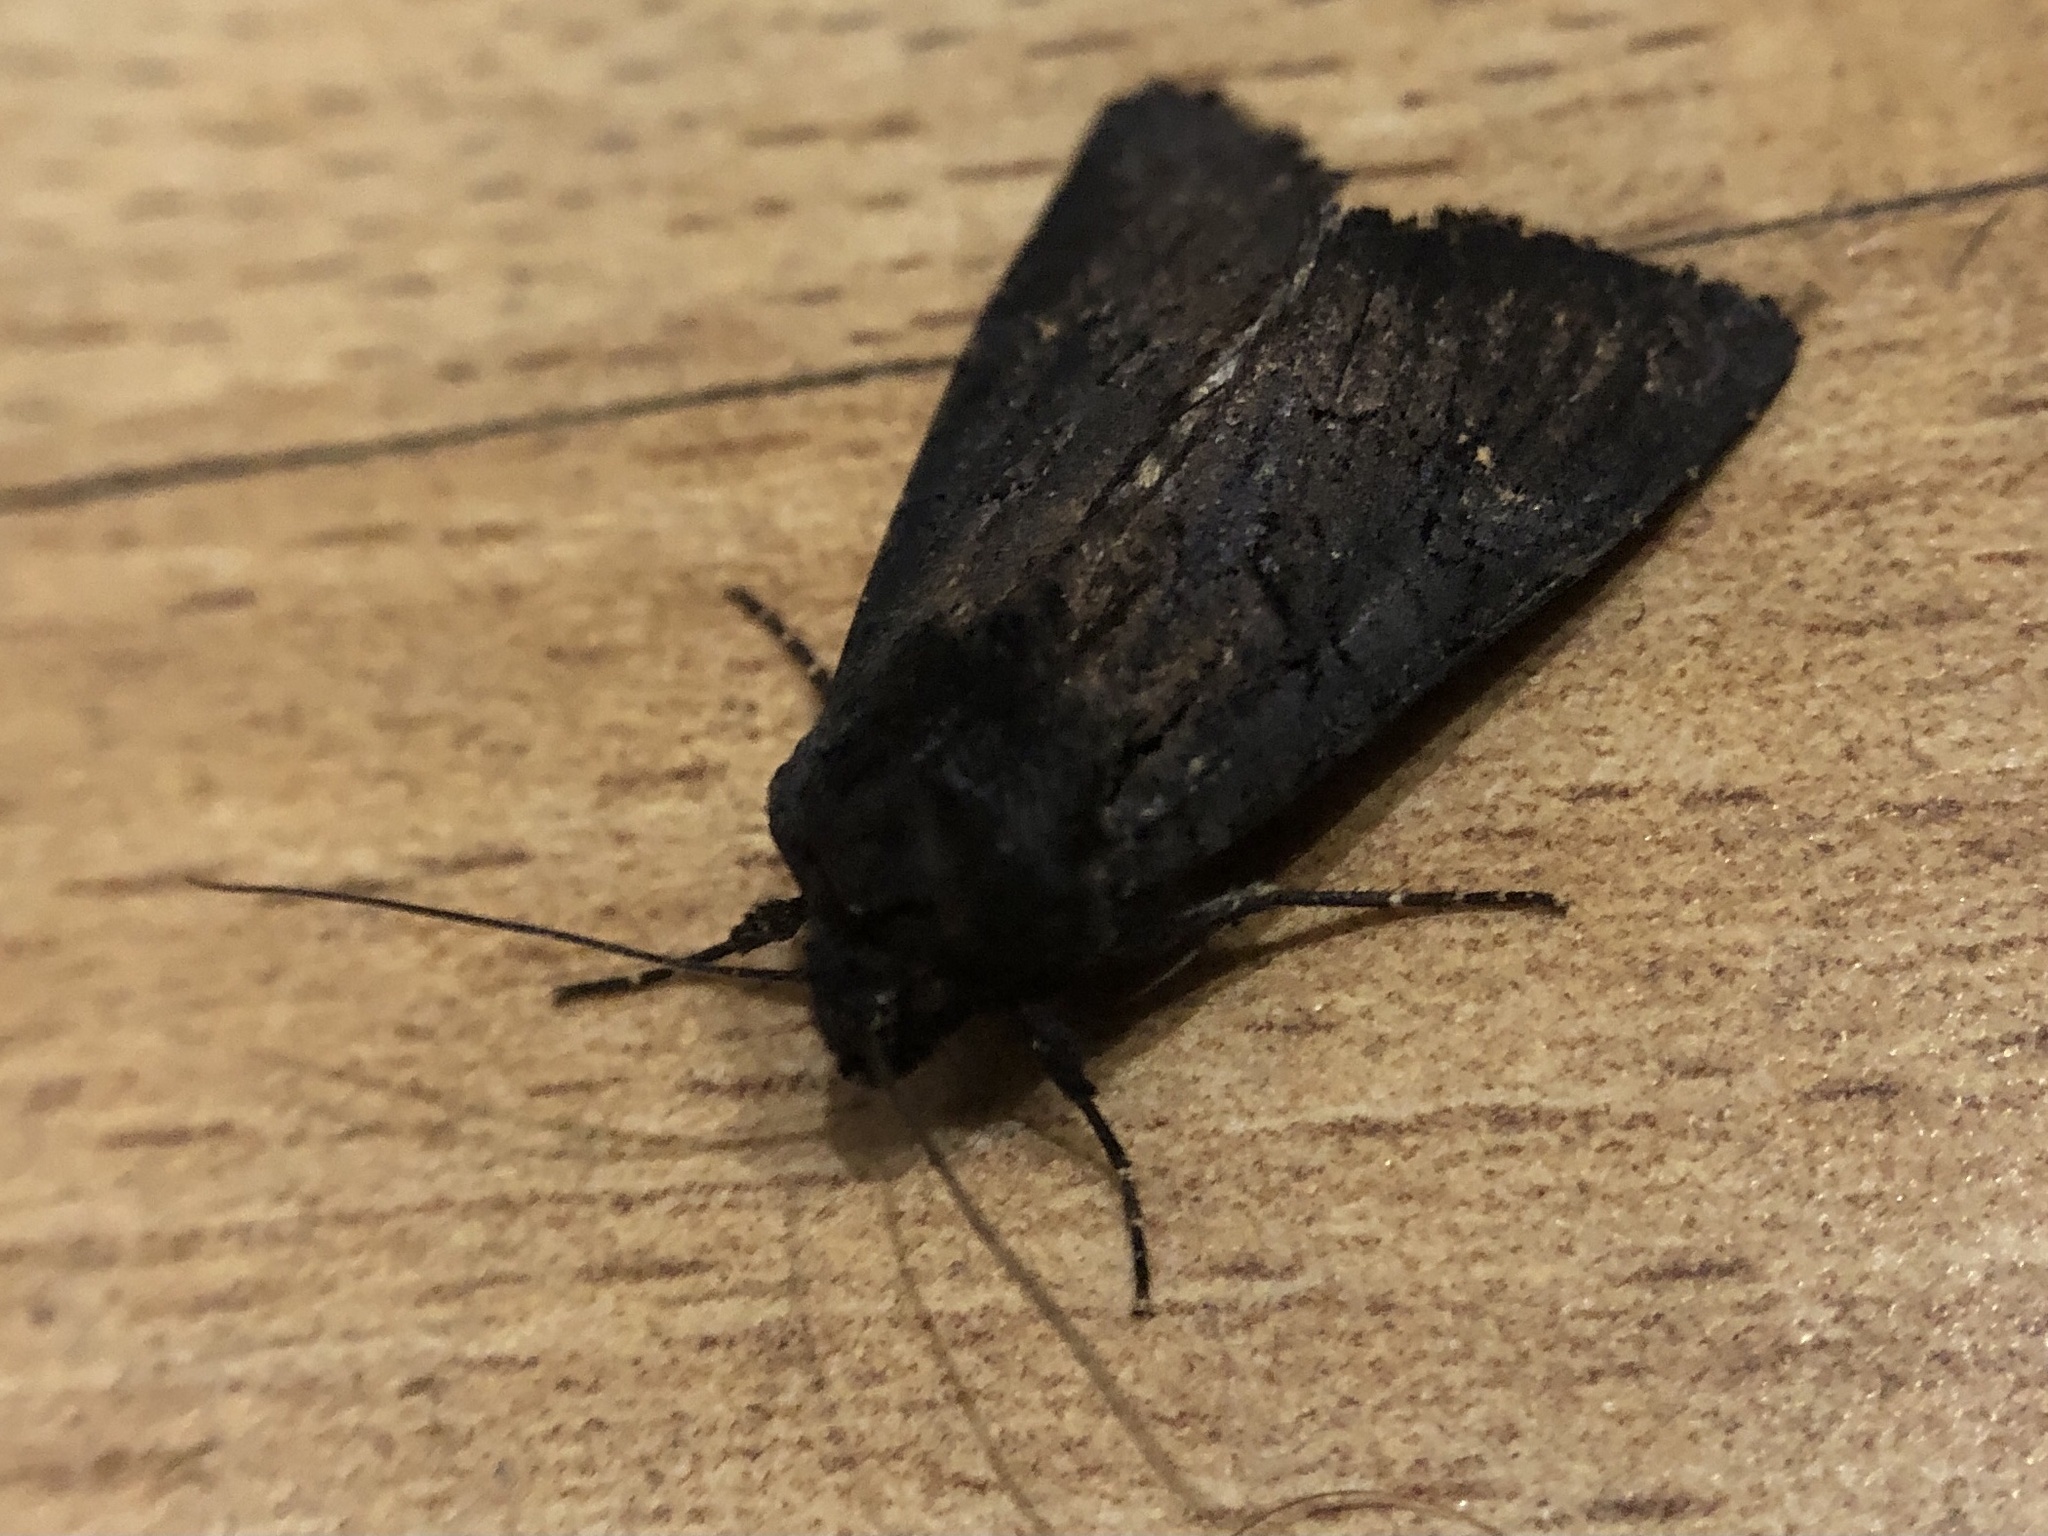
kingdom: Animalia
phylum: Arthropoda
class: Insecta
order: Lepidoptera
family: Noctuidae
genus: Aporophyla
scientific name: Aporophyla nigra
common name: Black rustic
